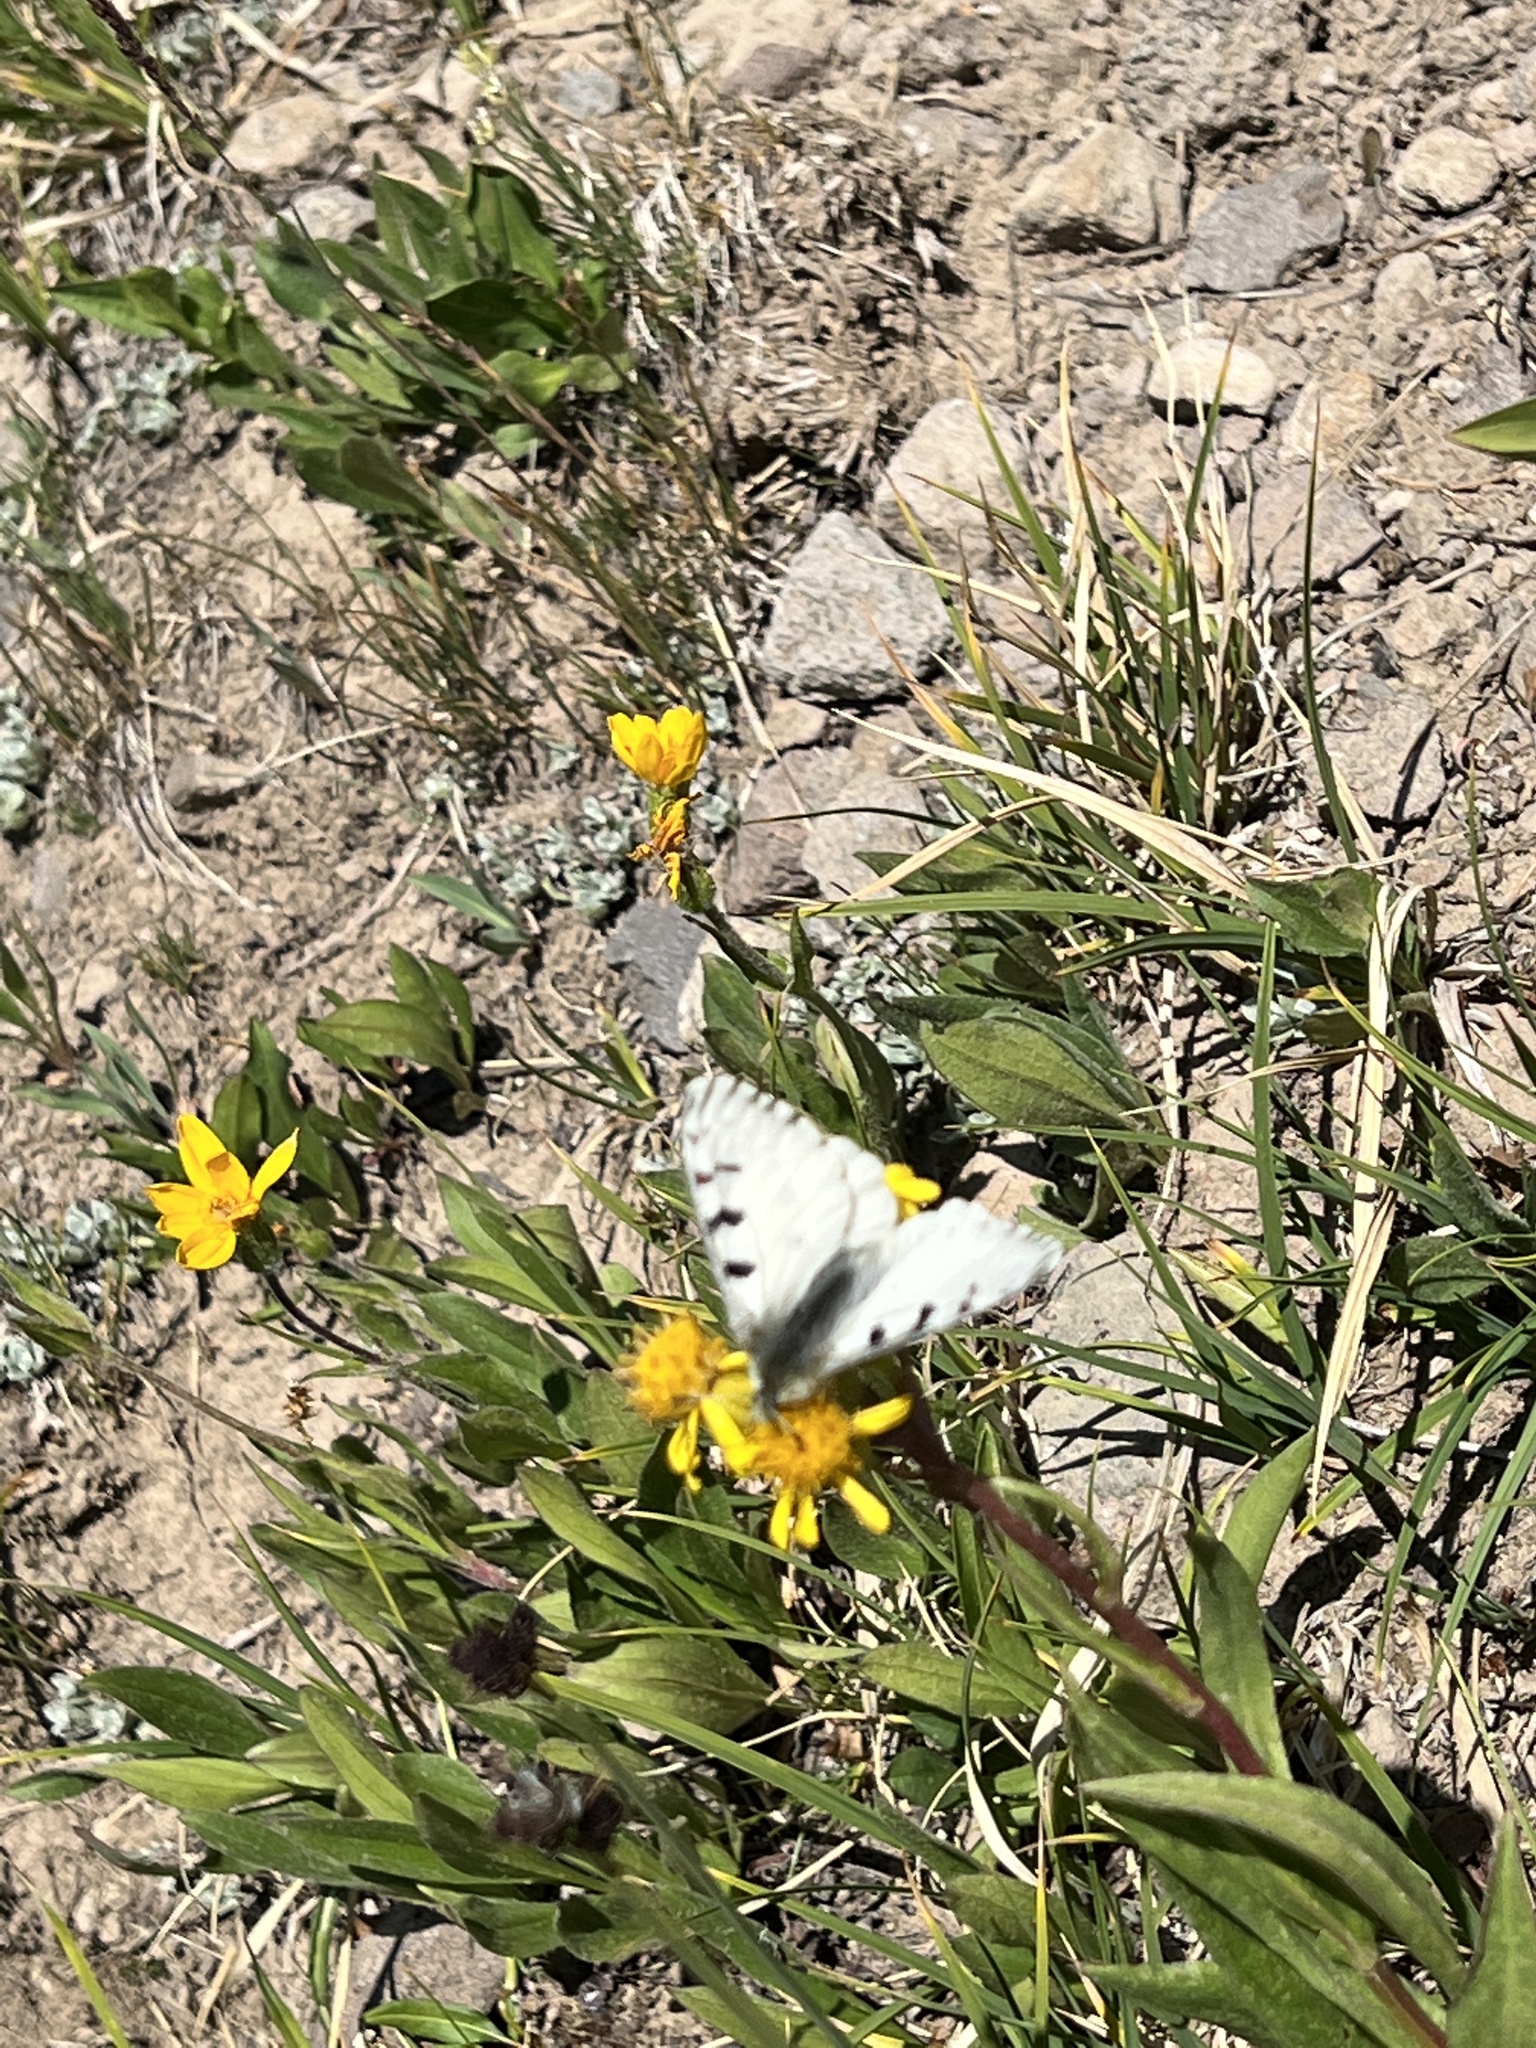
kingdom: Animalia
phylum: Arthropoda
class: Insecta
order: Lepidoptera
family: Papilionidae
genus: Parnassius
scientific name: Parnassius smintheus
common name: Mountain parnassian
